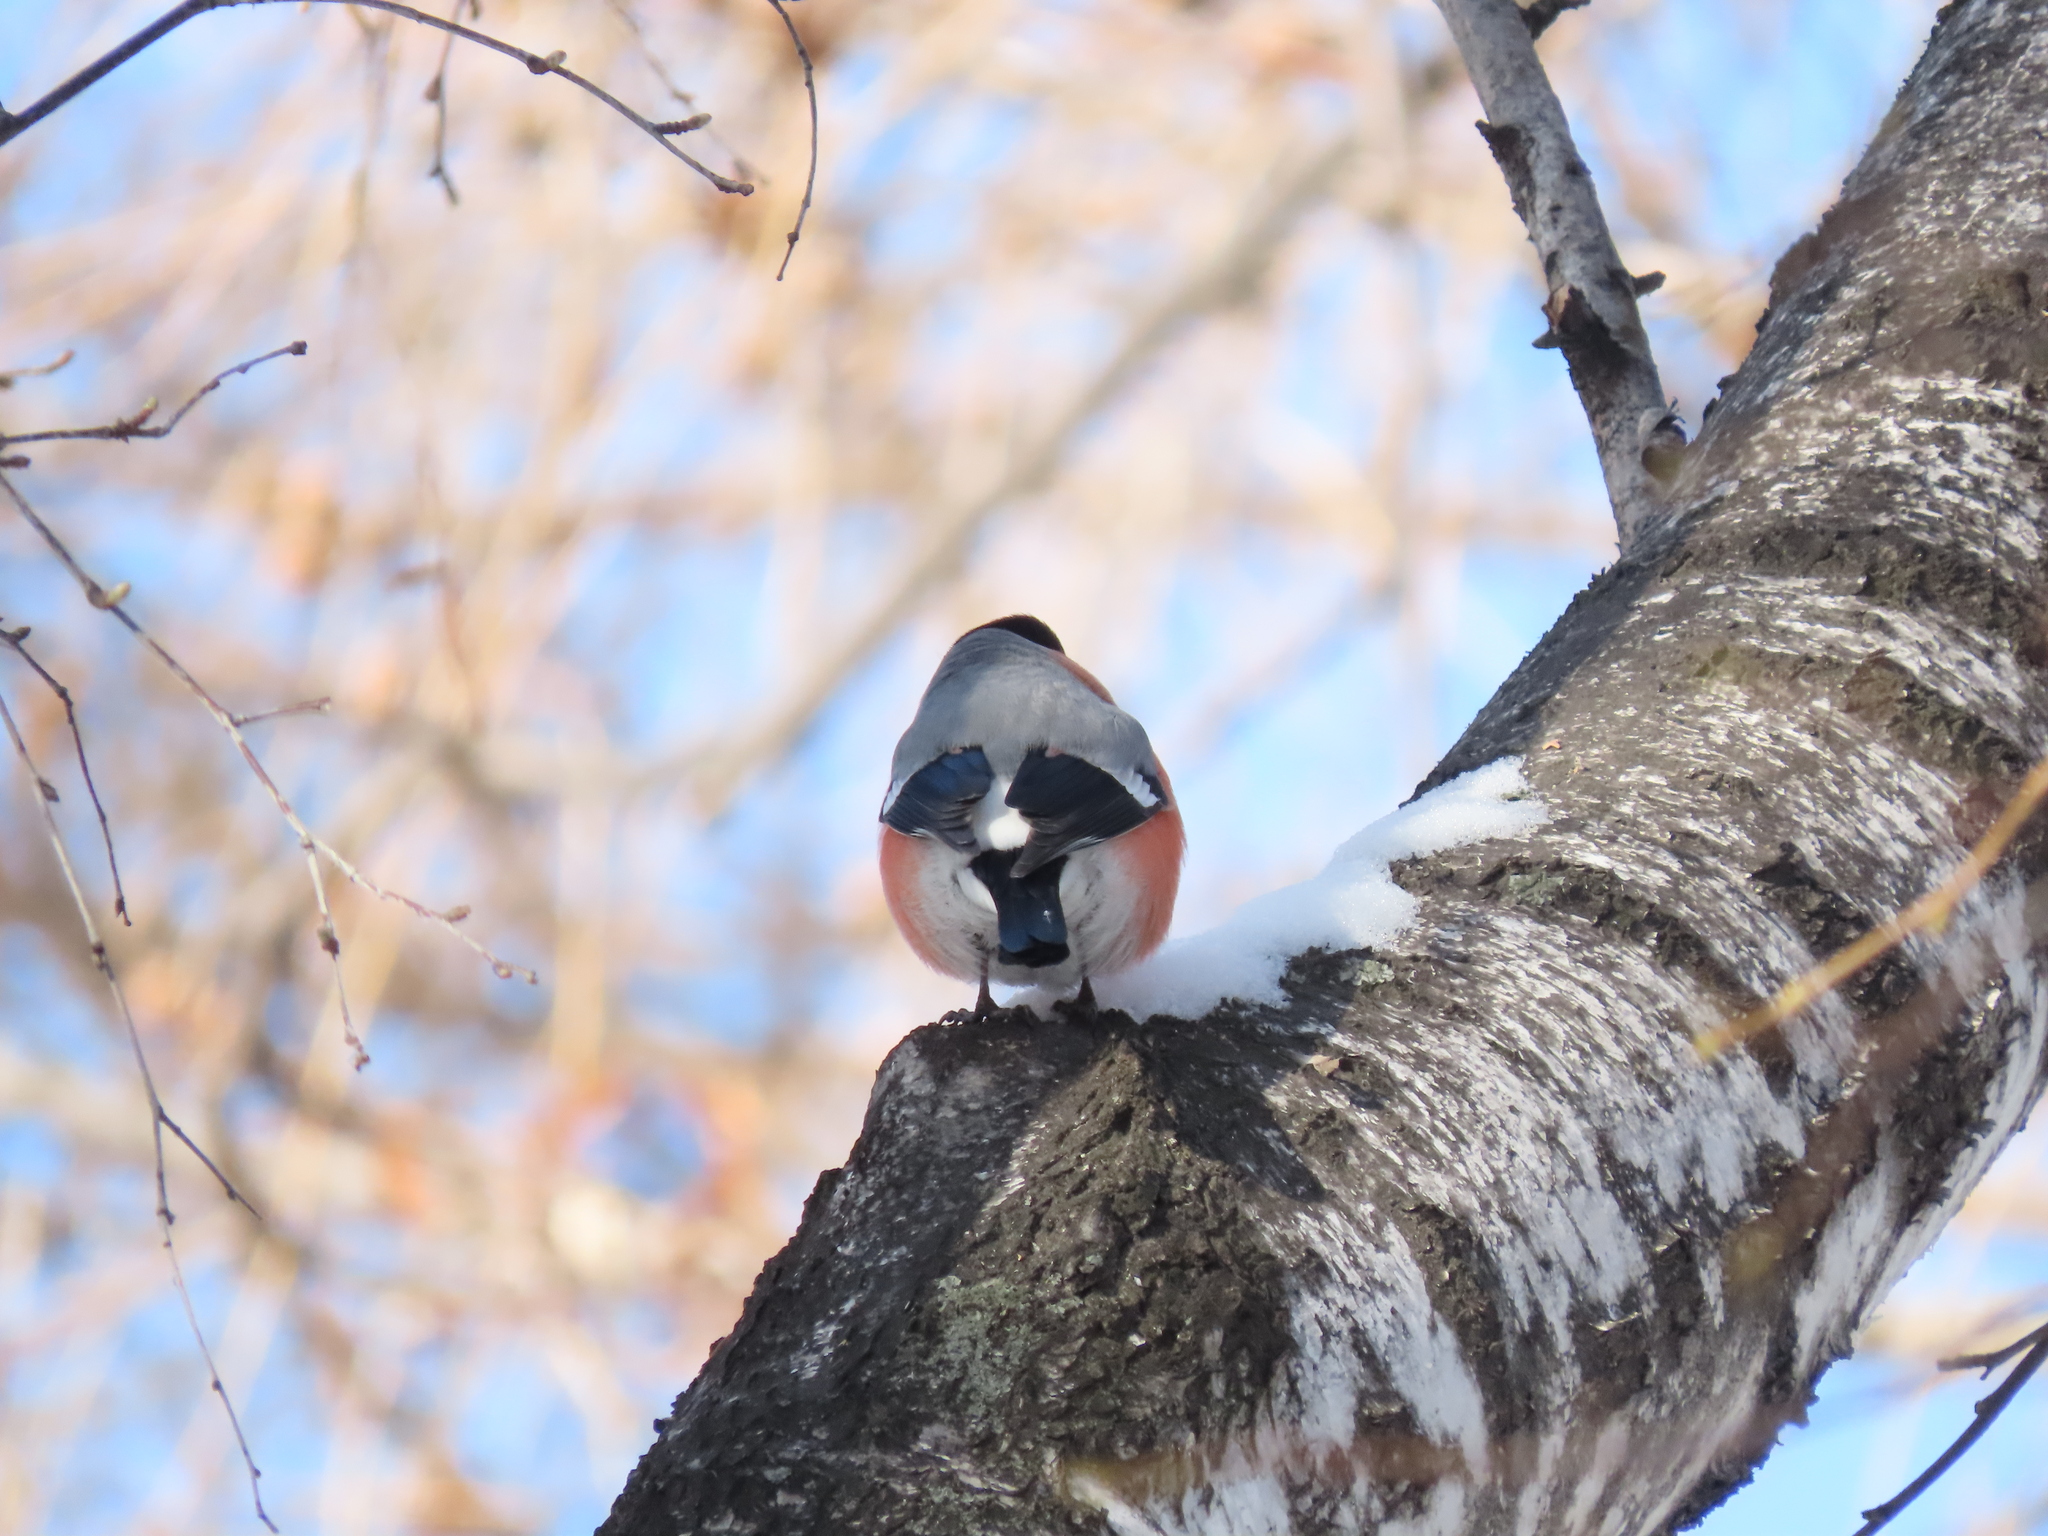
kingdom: Animalia
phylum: Chordata
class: Aves
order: Passeriformes
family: Fringillidae
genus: Pyrrhula
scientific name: Pyrrhula pyrrhula
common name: Eurasian bullfinch
